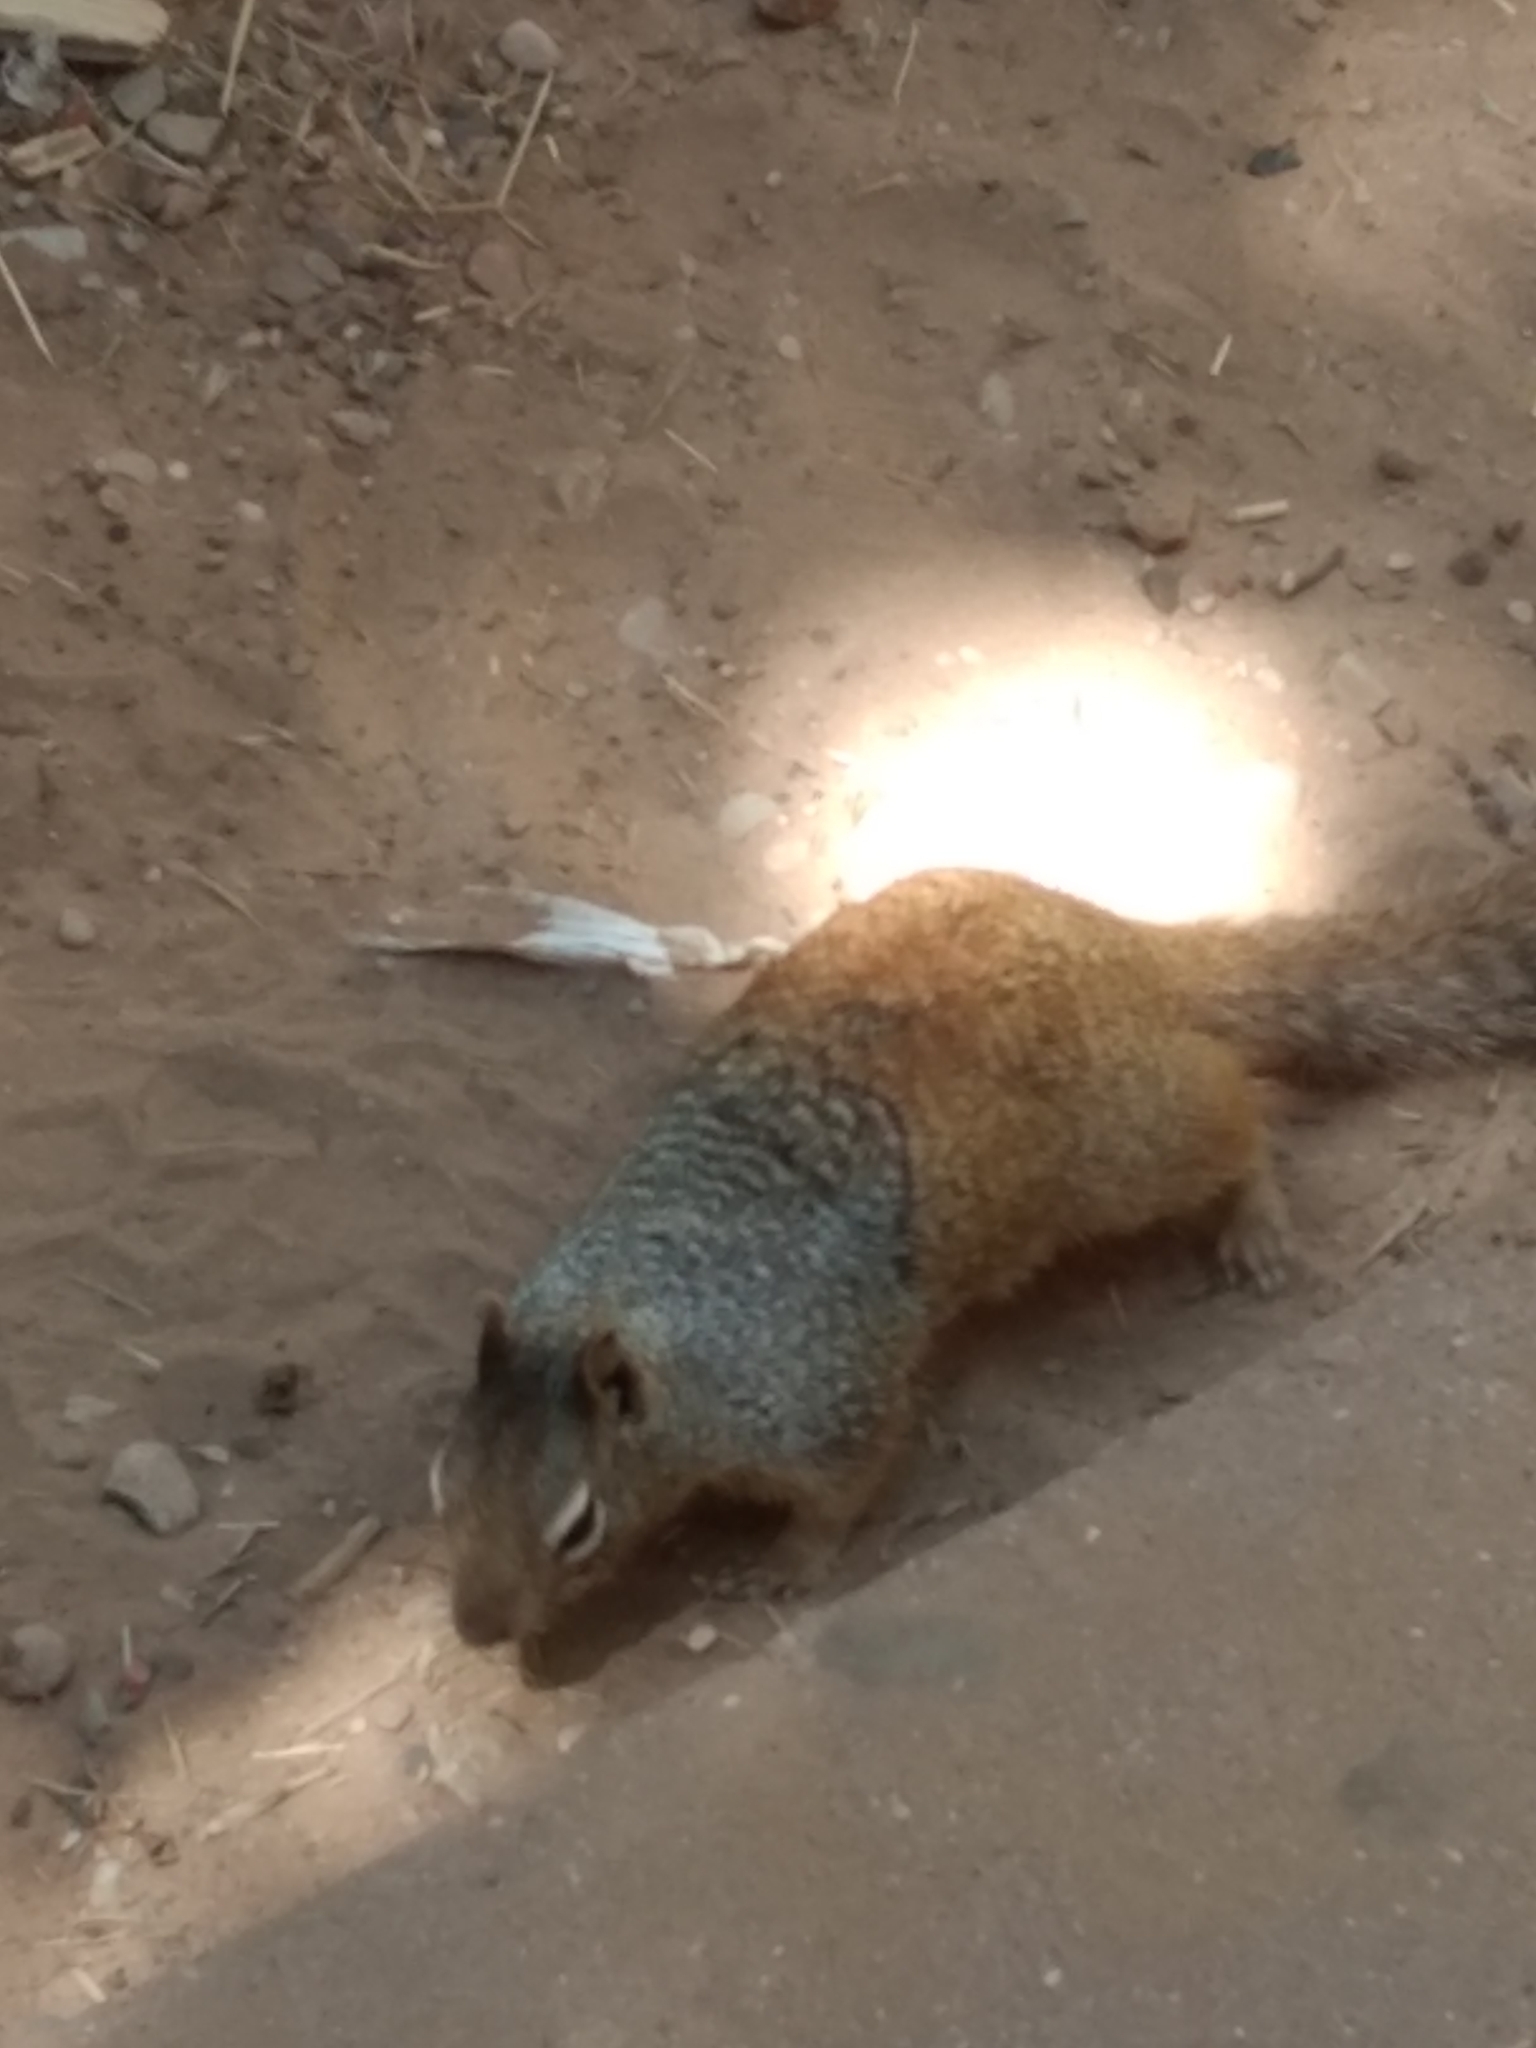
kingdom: Animalia
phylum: Chordata
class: Mammalia
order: Rodentia
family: Sciuridae
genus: Otospermophilus
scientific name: Otospermophilus variegatus
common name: Rock squirrel
